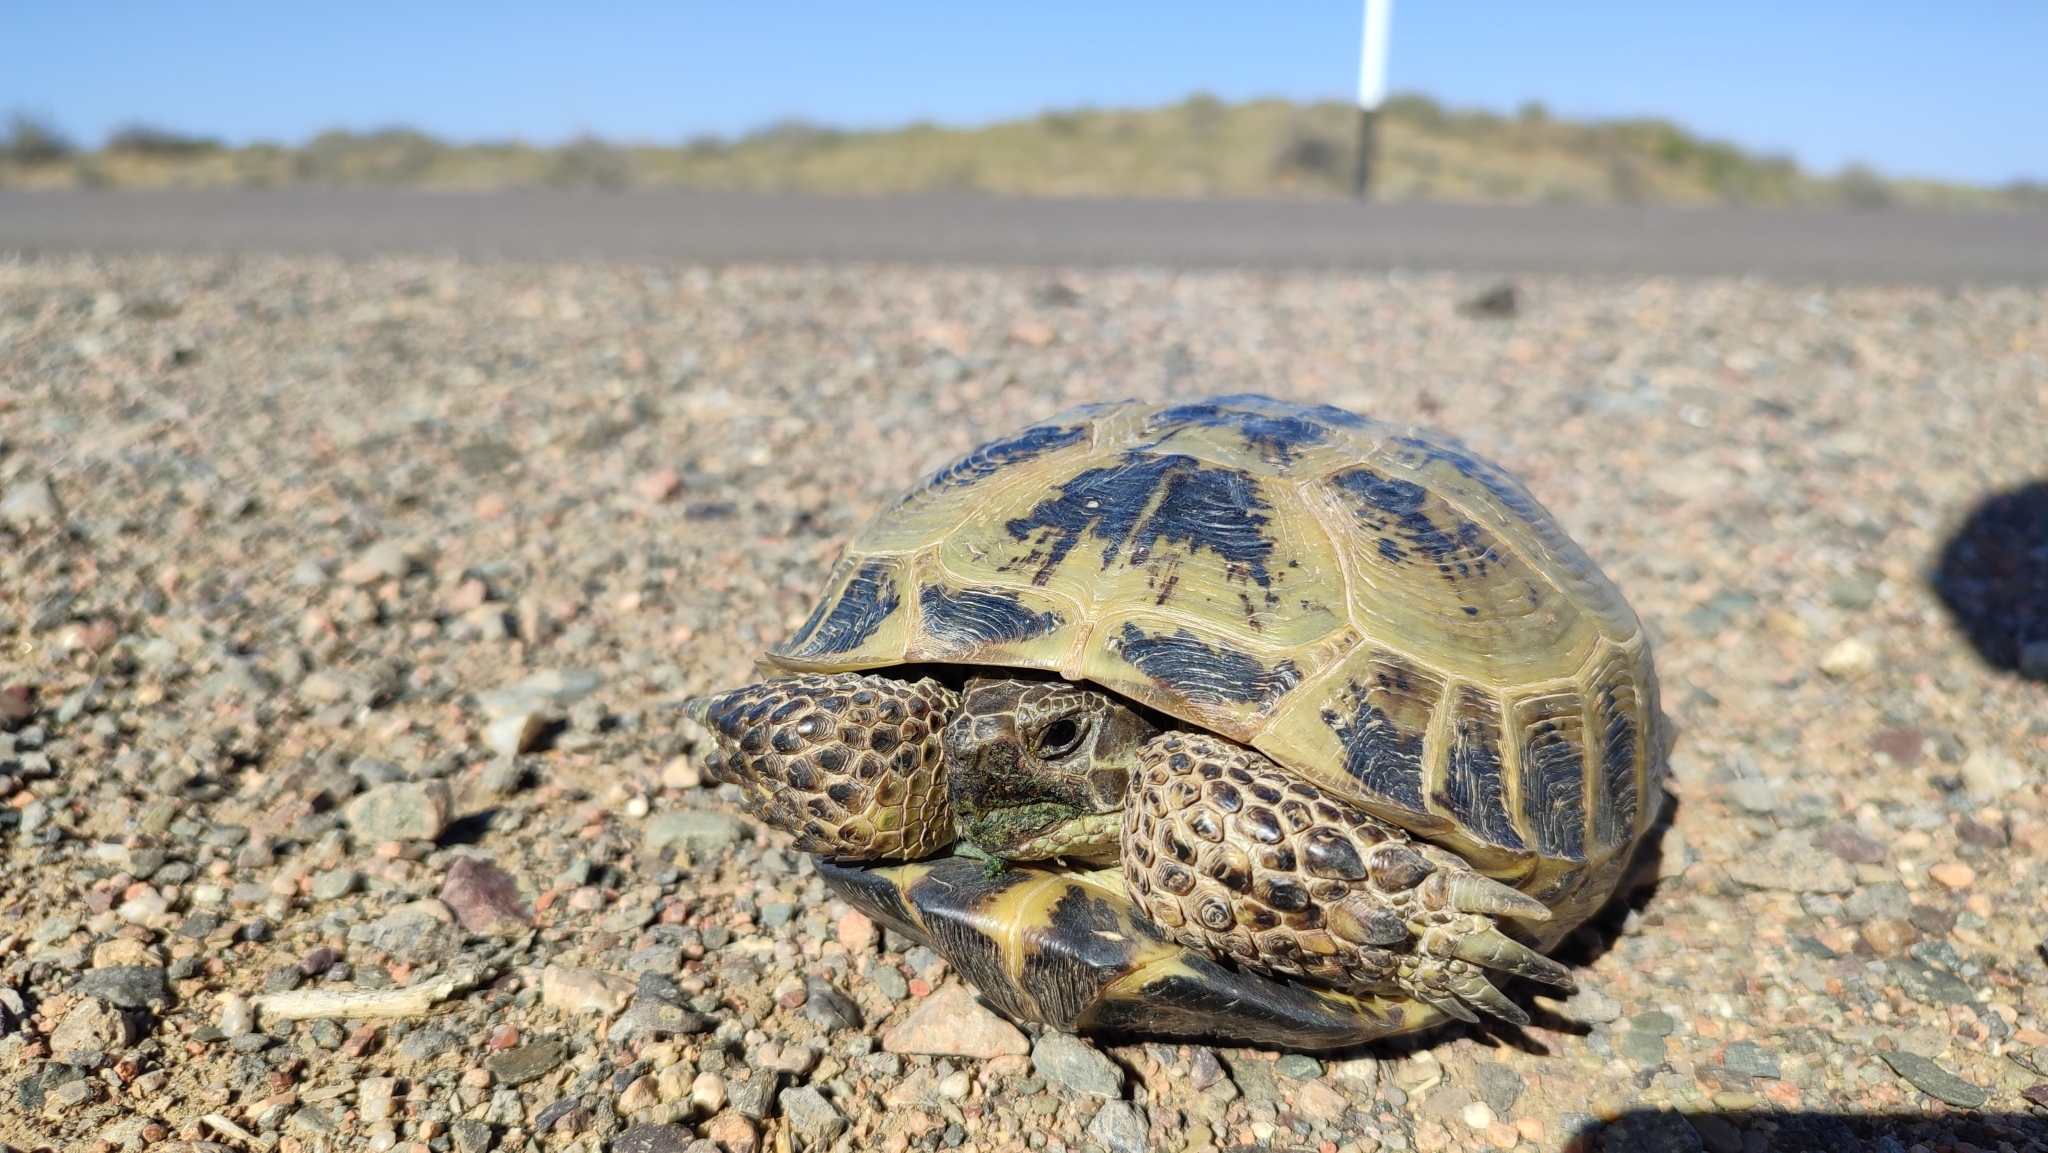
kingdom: Animalia
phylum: Chordata
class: Testudines
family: Testudinidae
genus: Testudo
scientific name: Testudo horsfieldii
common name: Central asia tortoise
